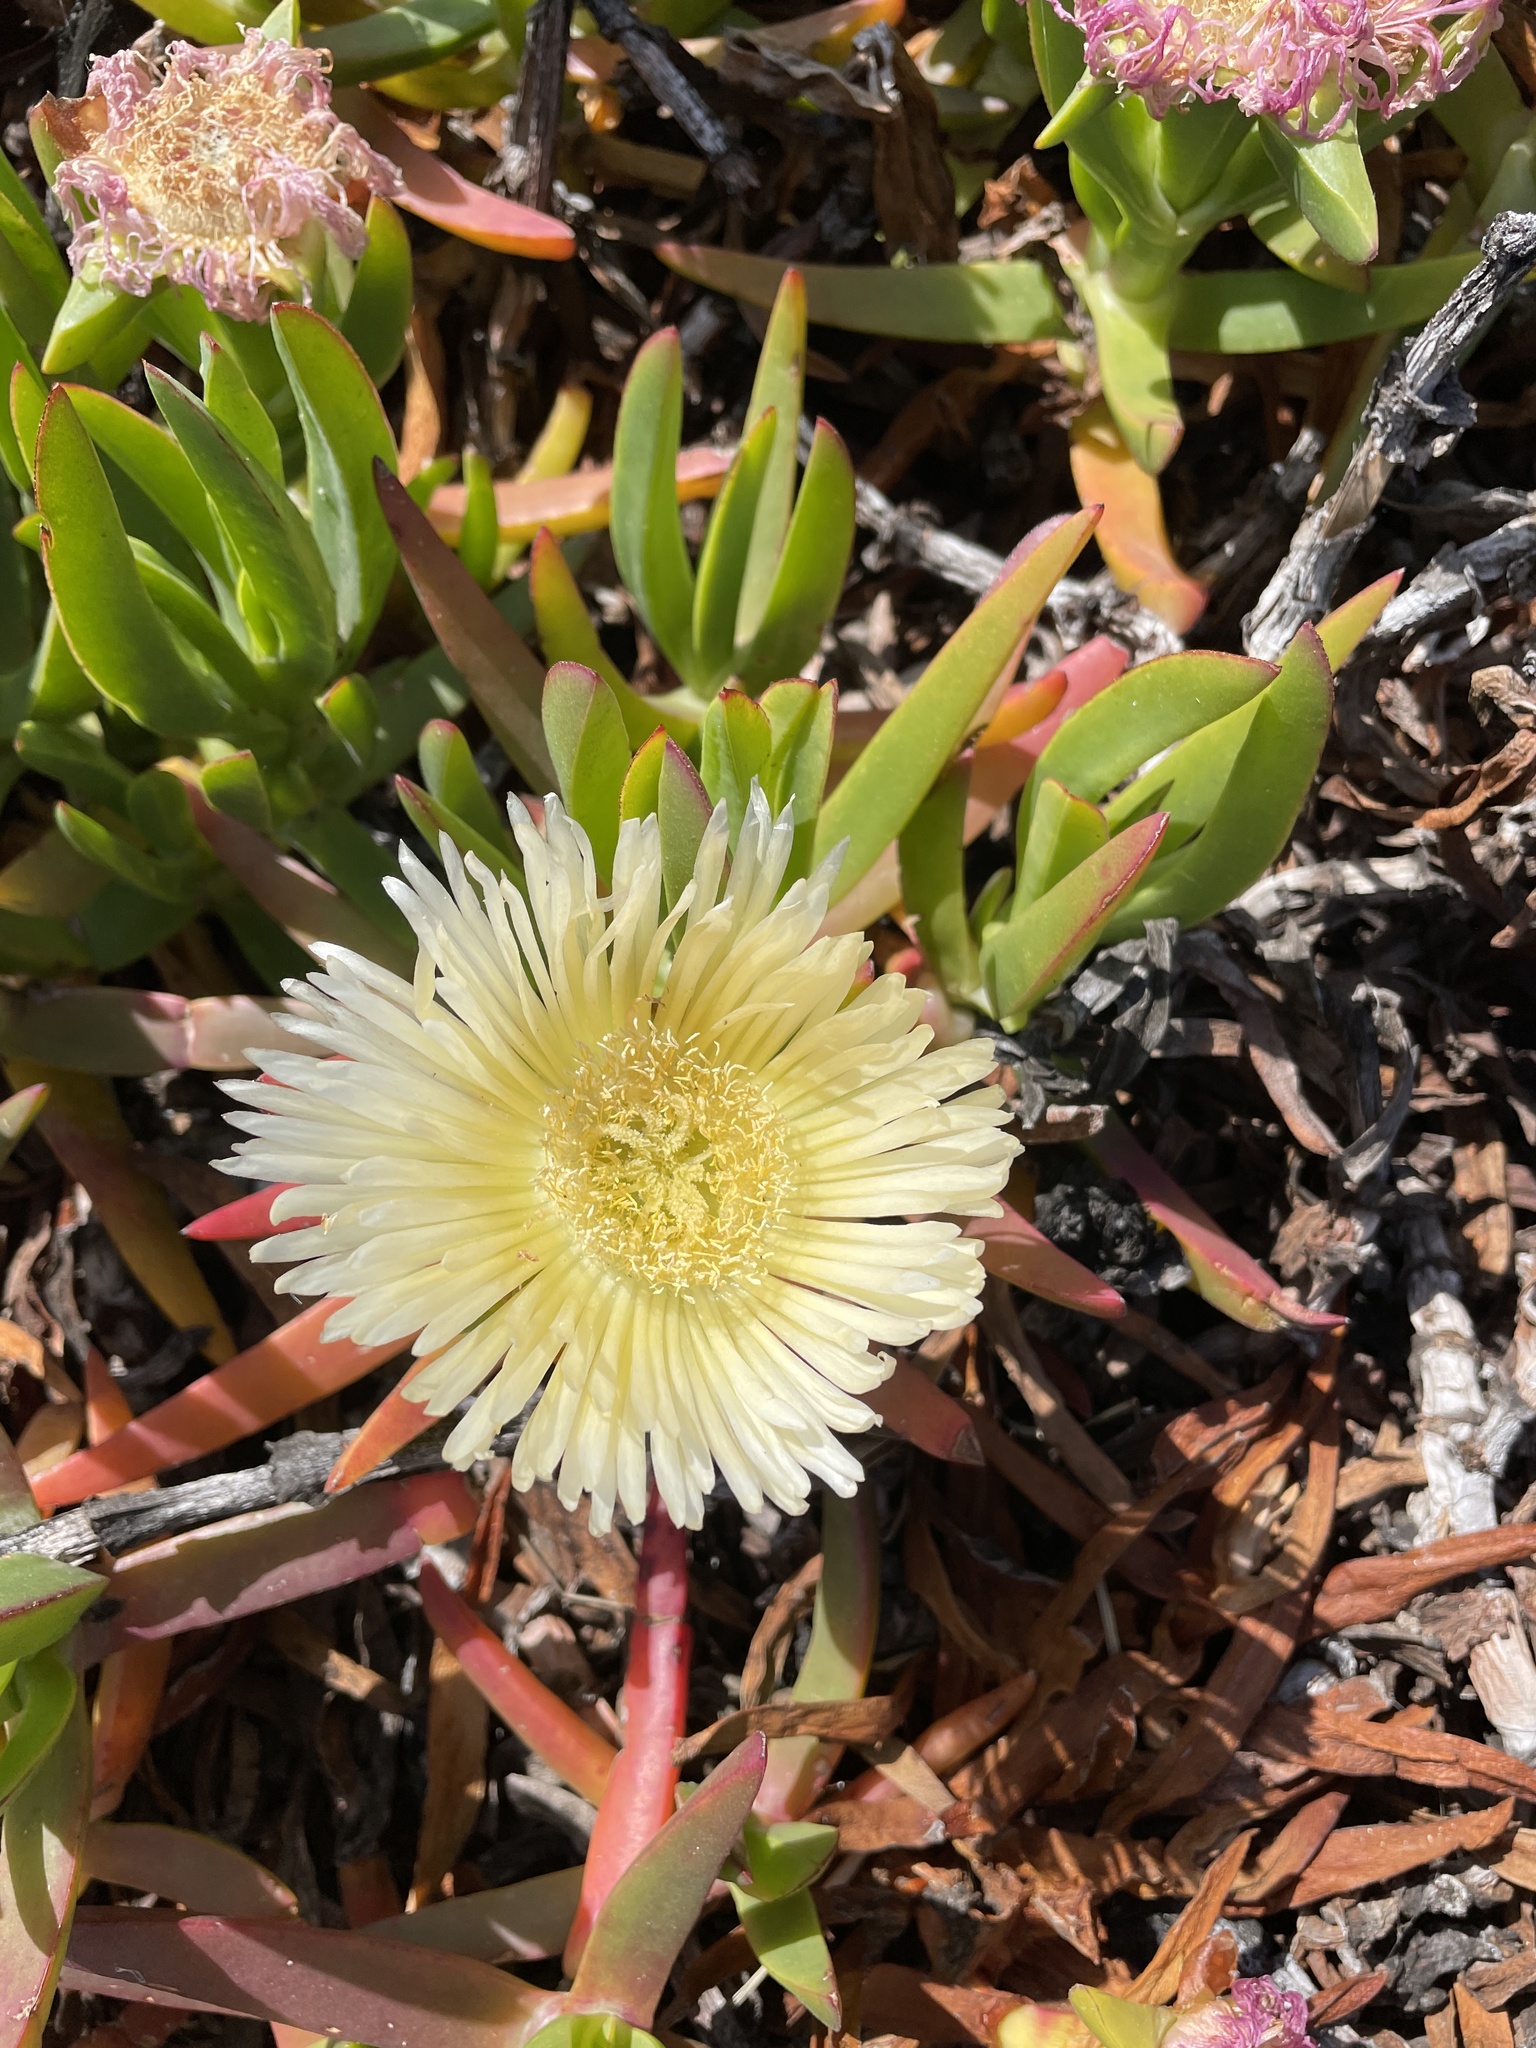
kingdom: Plantae
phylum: Tracheophyta
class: Magnoliopsida
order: Caryophyllales
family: Aizoaceae
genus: Carpobrotus
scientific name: Carpobrotus edulis
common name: Hottentot-fig
